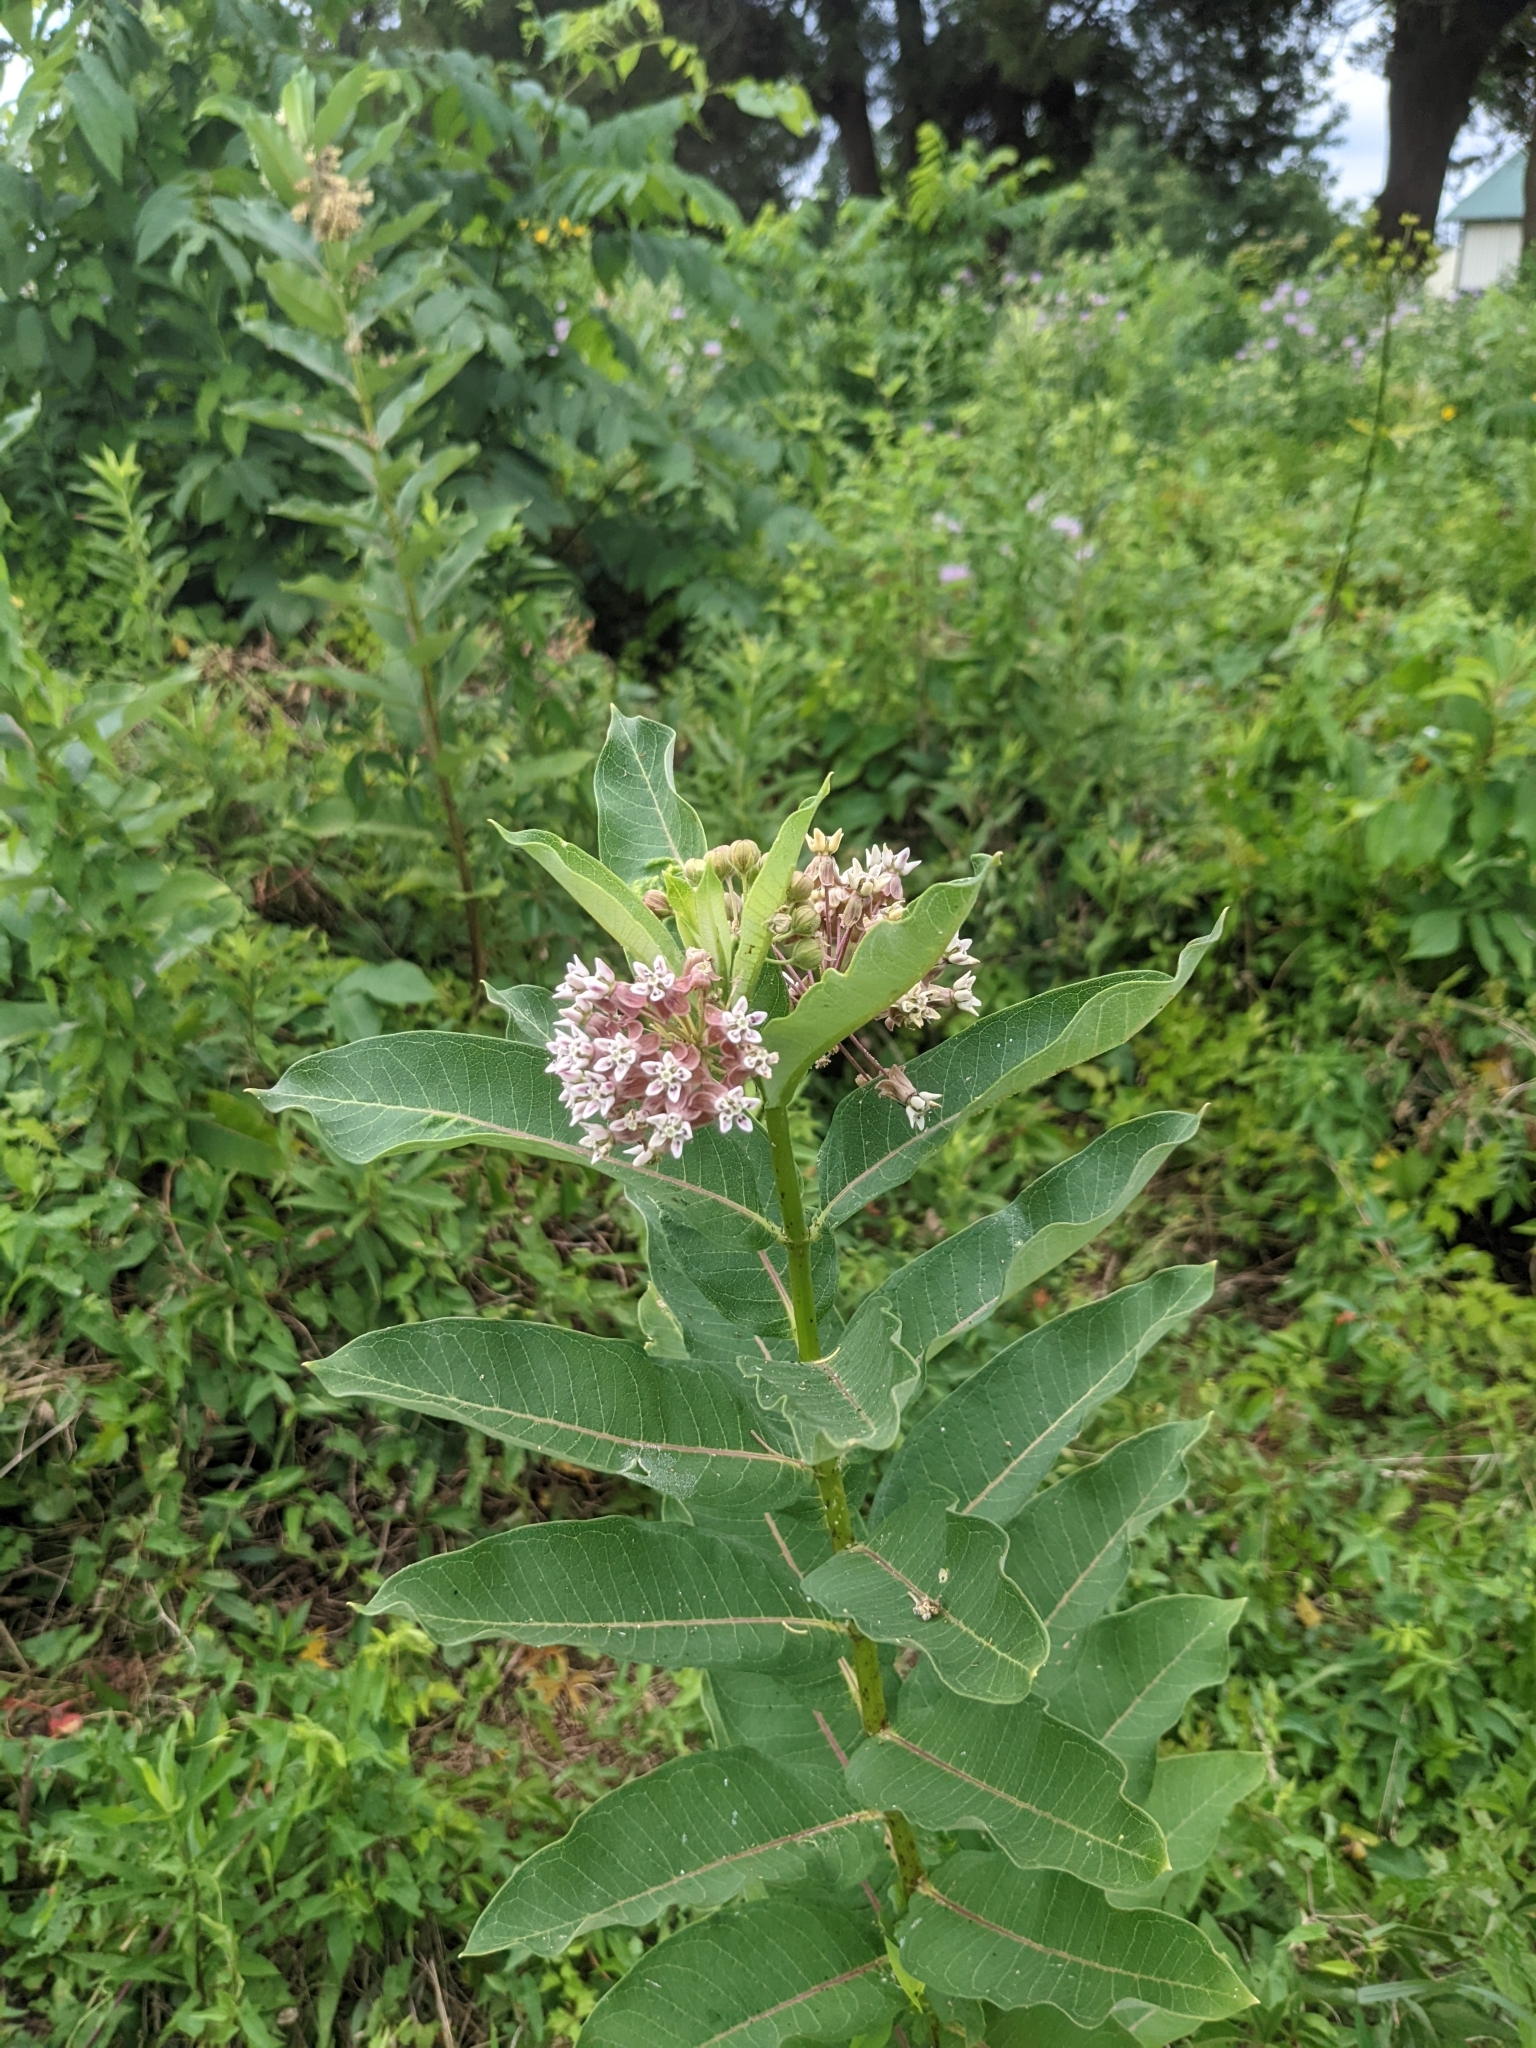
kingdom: Plantae
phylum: Tracheophyta
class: Magnoliopsida
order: Gentianales
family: Apocynaceae
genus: Asclepias
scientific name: Asclepias syriaca
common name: Common milkweed
